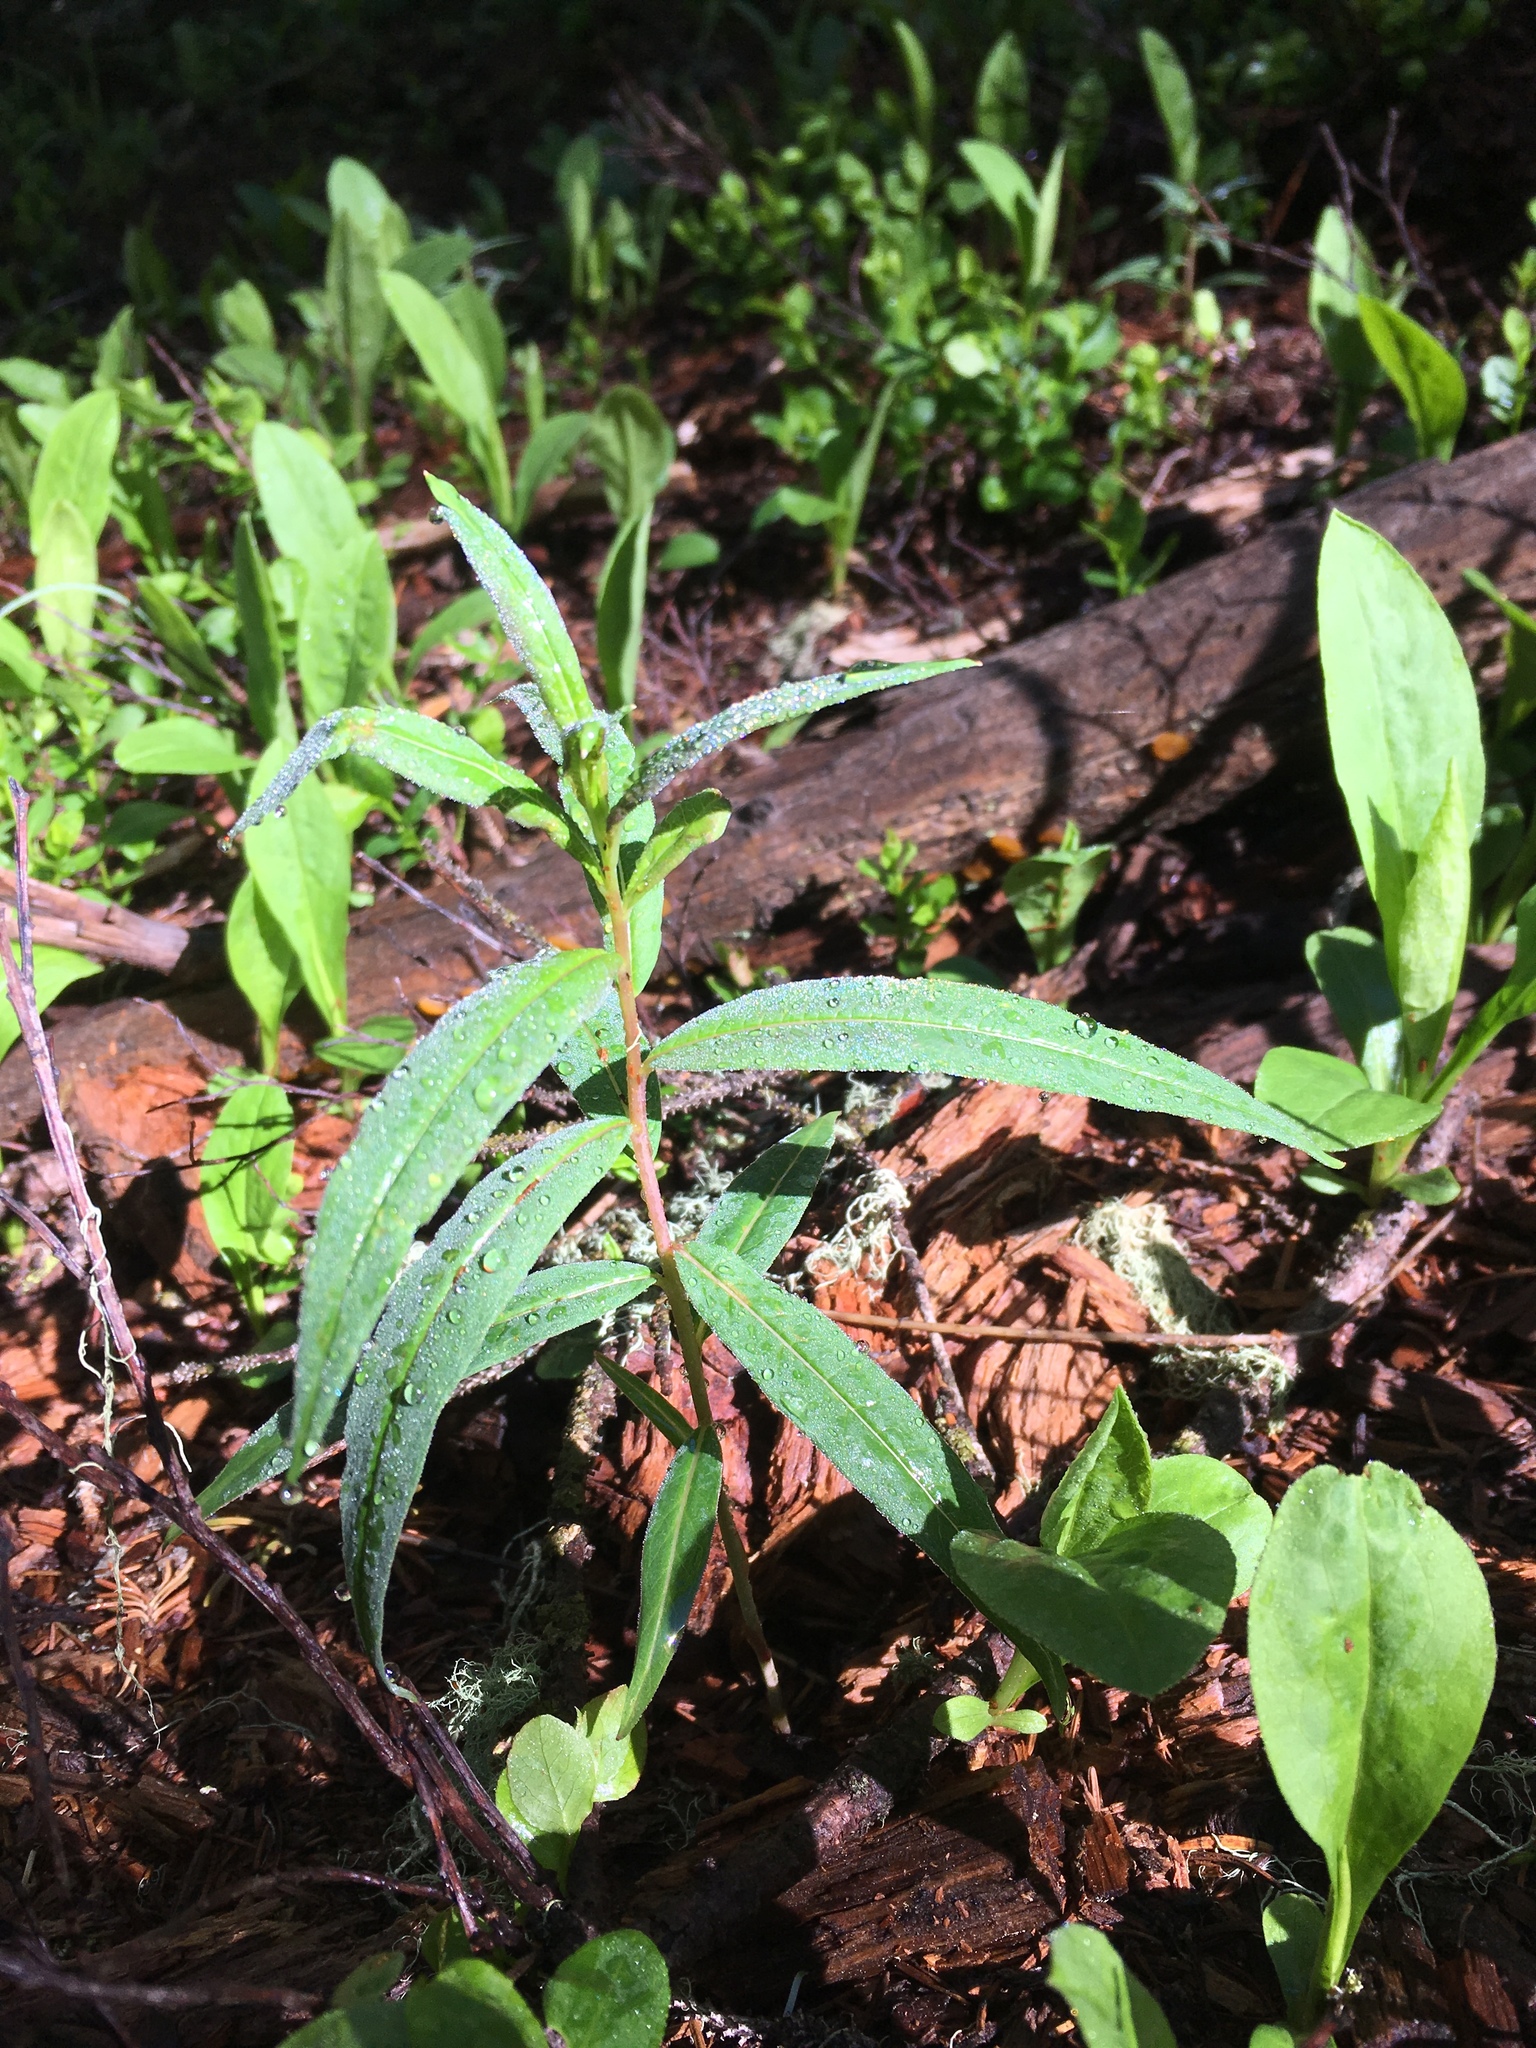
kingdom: Plantae
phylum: Tracheophyta
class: Magnoliopsida
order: Myrtales
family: Onagraceae
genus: Chamaenerion
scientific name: Chamaenerion angustifolium
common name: Fireweed
